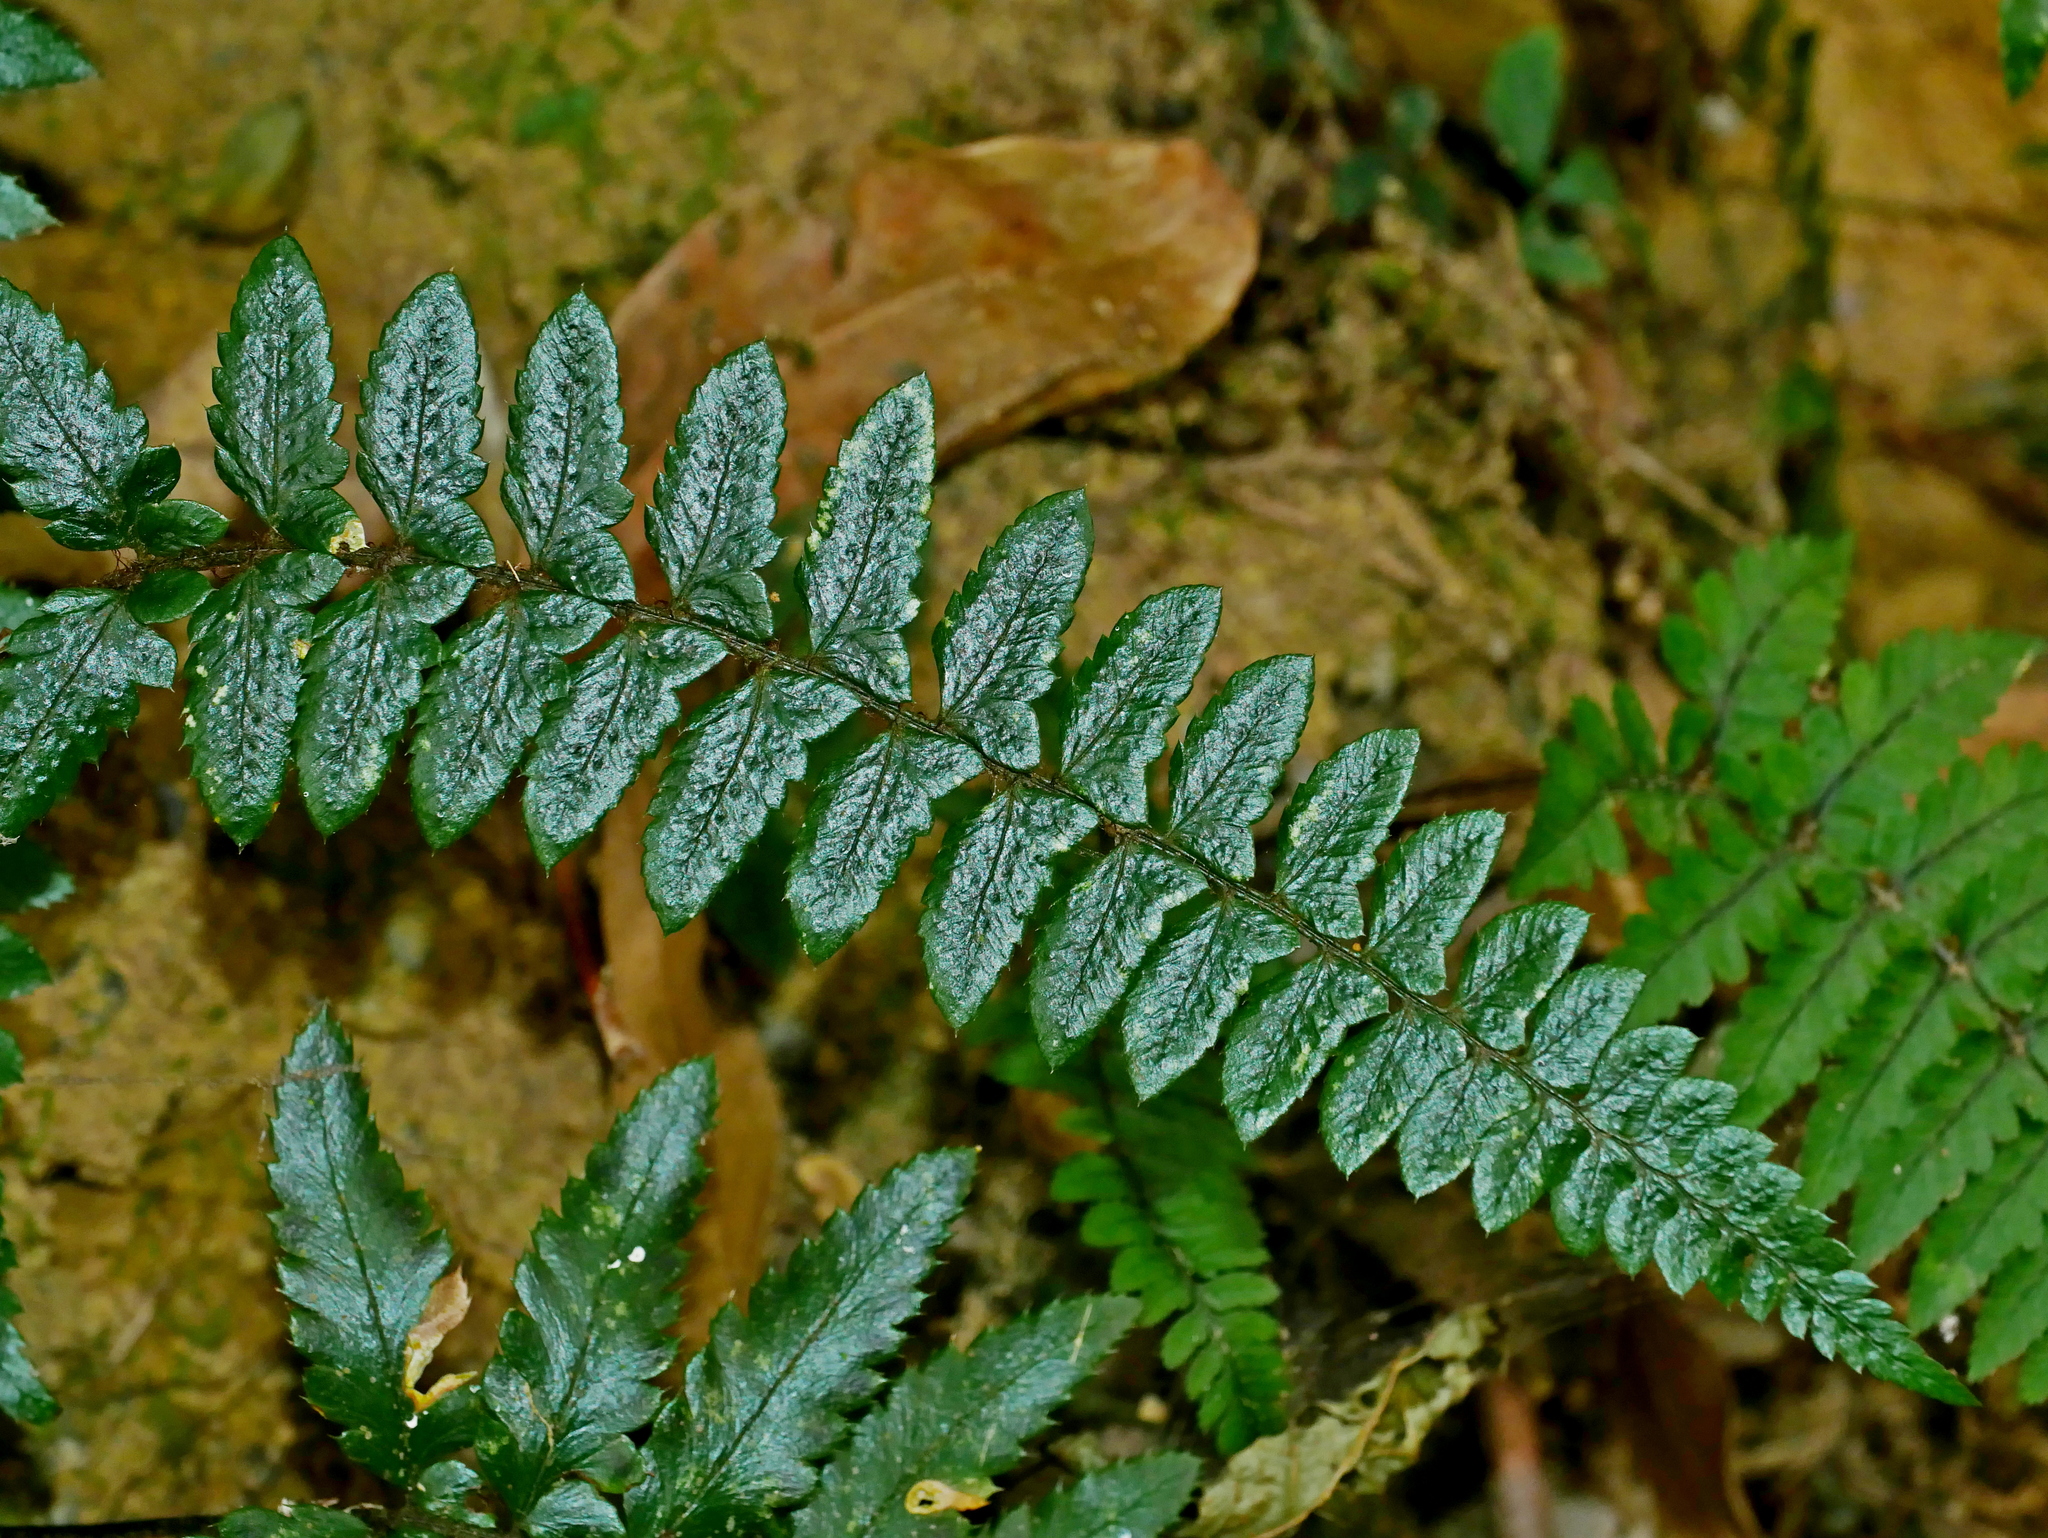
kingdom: Plantae
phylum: Tracheophyta
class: Polypodiopsida
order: Polypodiales
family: Dryopteridaceae
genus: Polystichum
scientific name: Polystichum prionolepis
